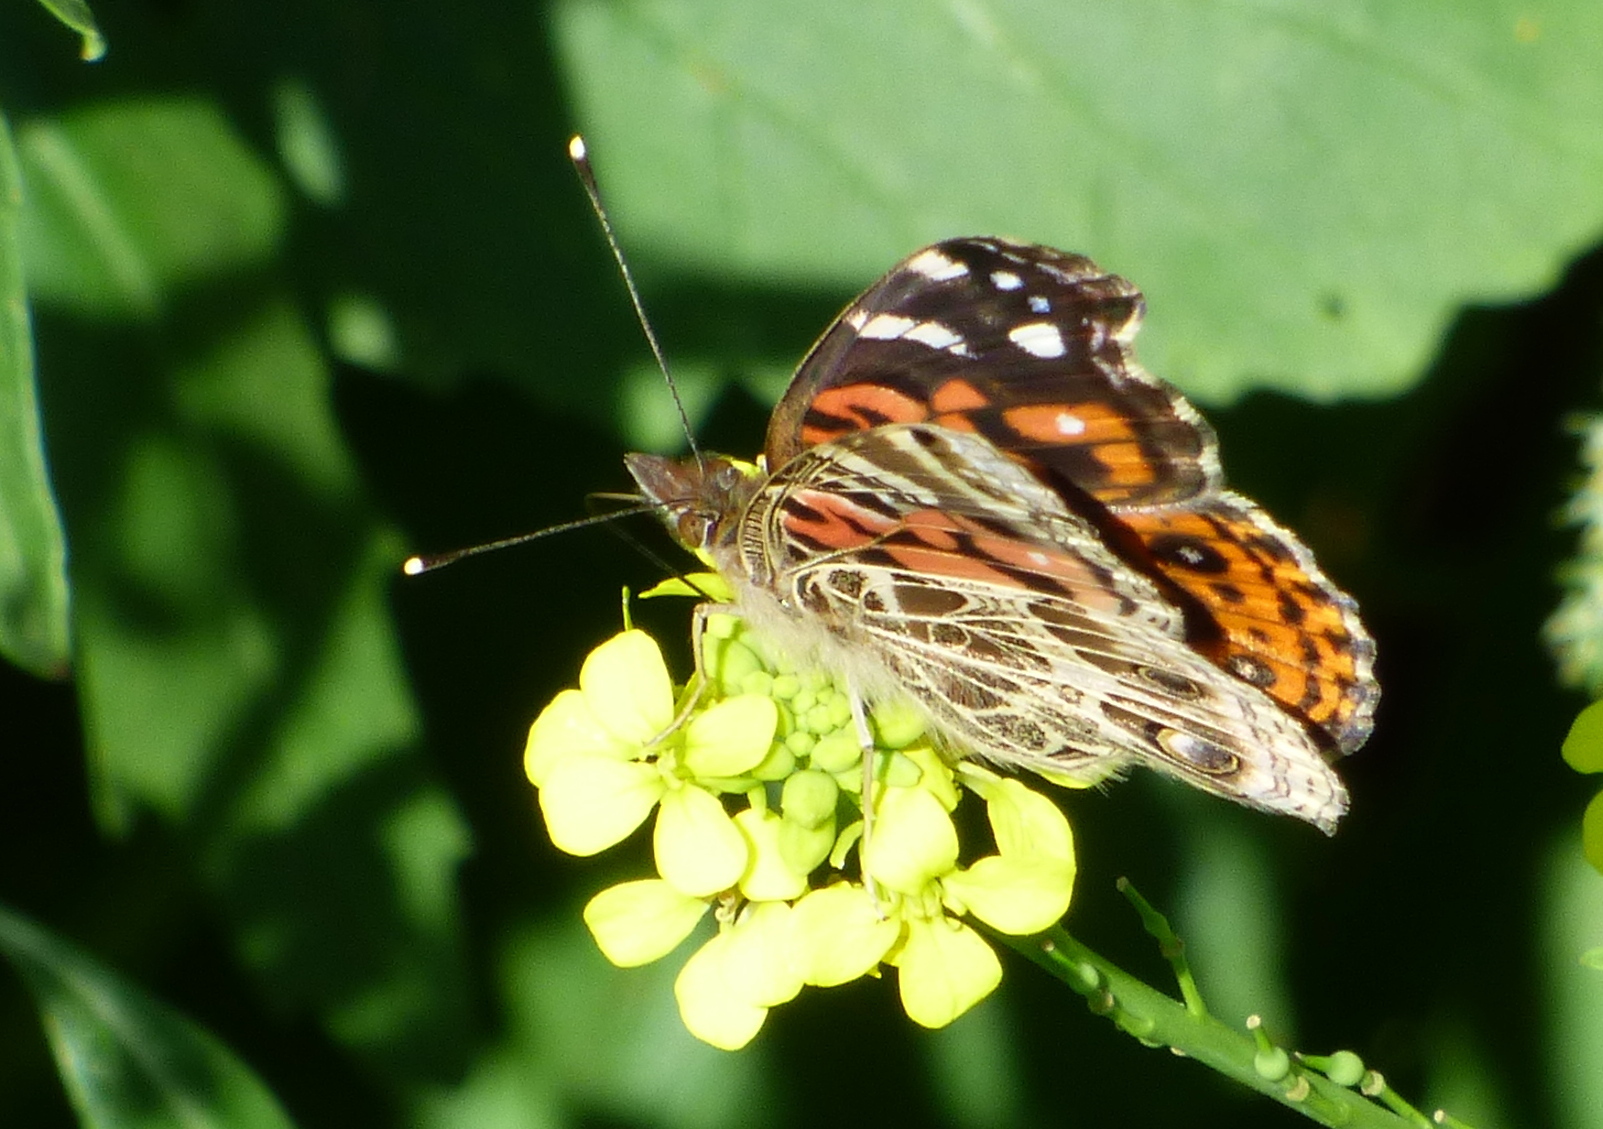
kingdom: Animalia
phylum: Arthropoda
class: Insecta
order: Lepidoptera
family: Nymphalidae
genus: Vanessa
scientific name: Vanessa braziliensis
